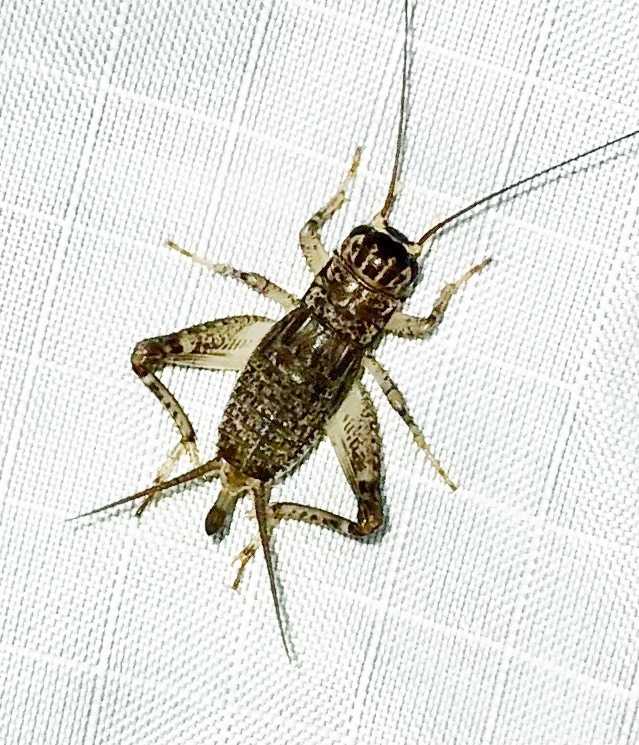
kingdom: Animalia
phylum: Arthropoda
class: Insecta
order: Orthoptera
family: Gryllidae
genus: Velarifictorus
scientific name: Velarifictorus micado
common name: Japanese burrowing cricket
